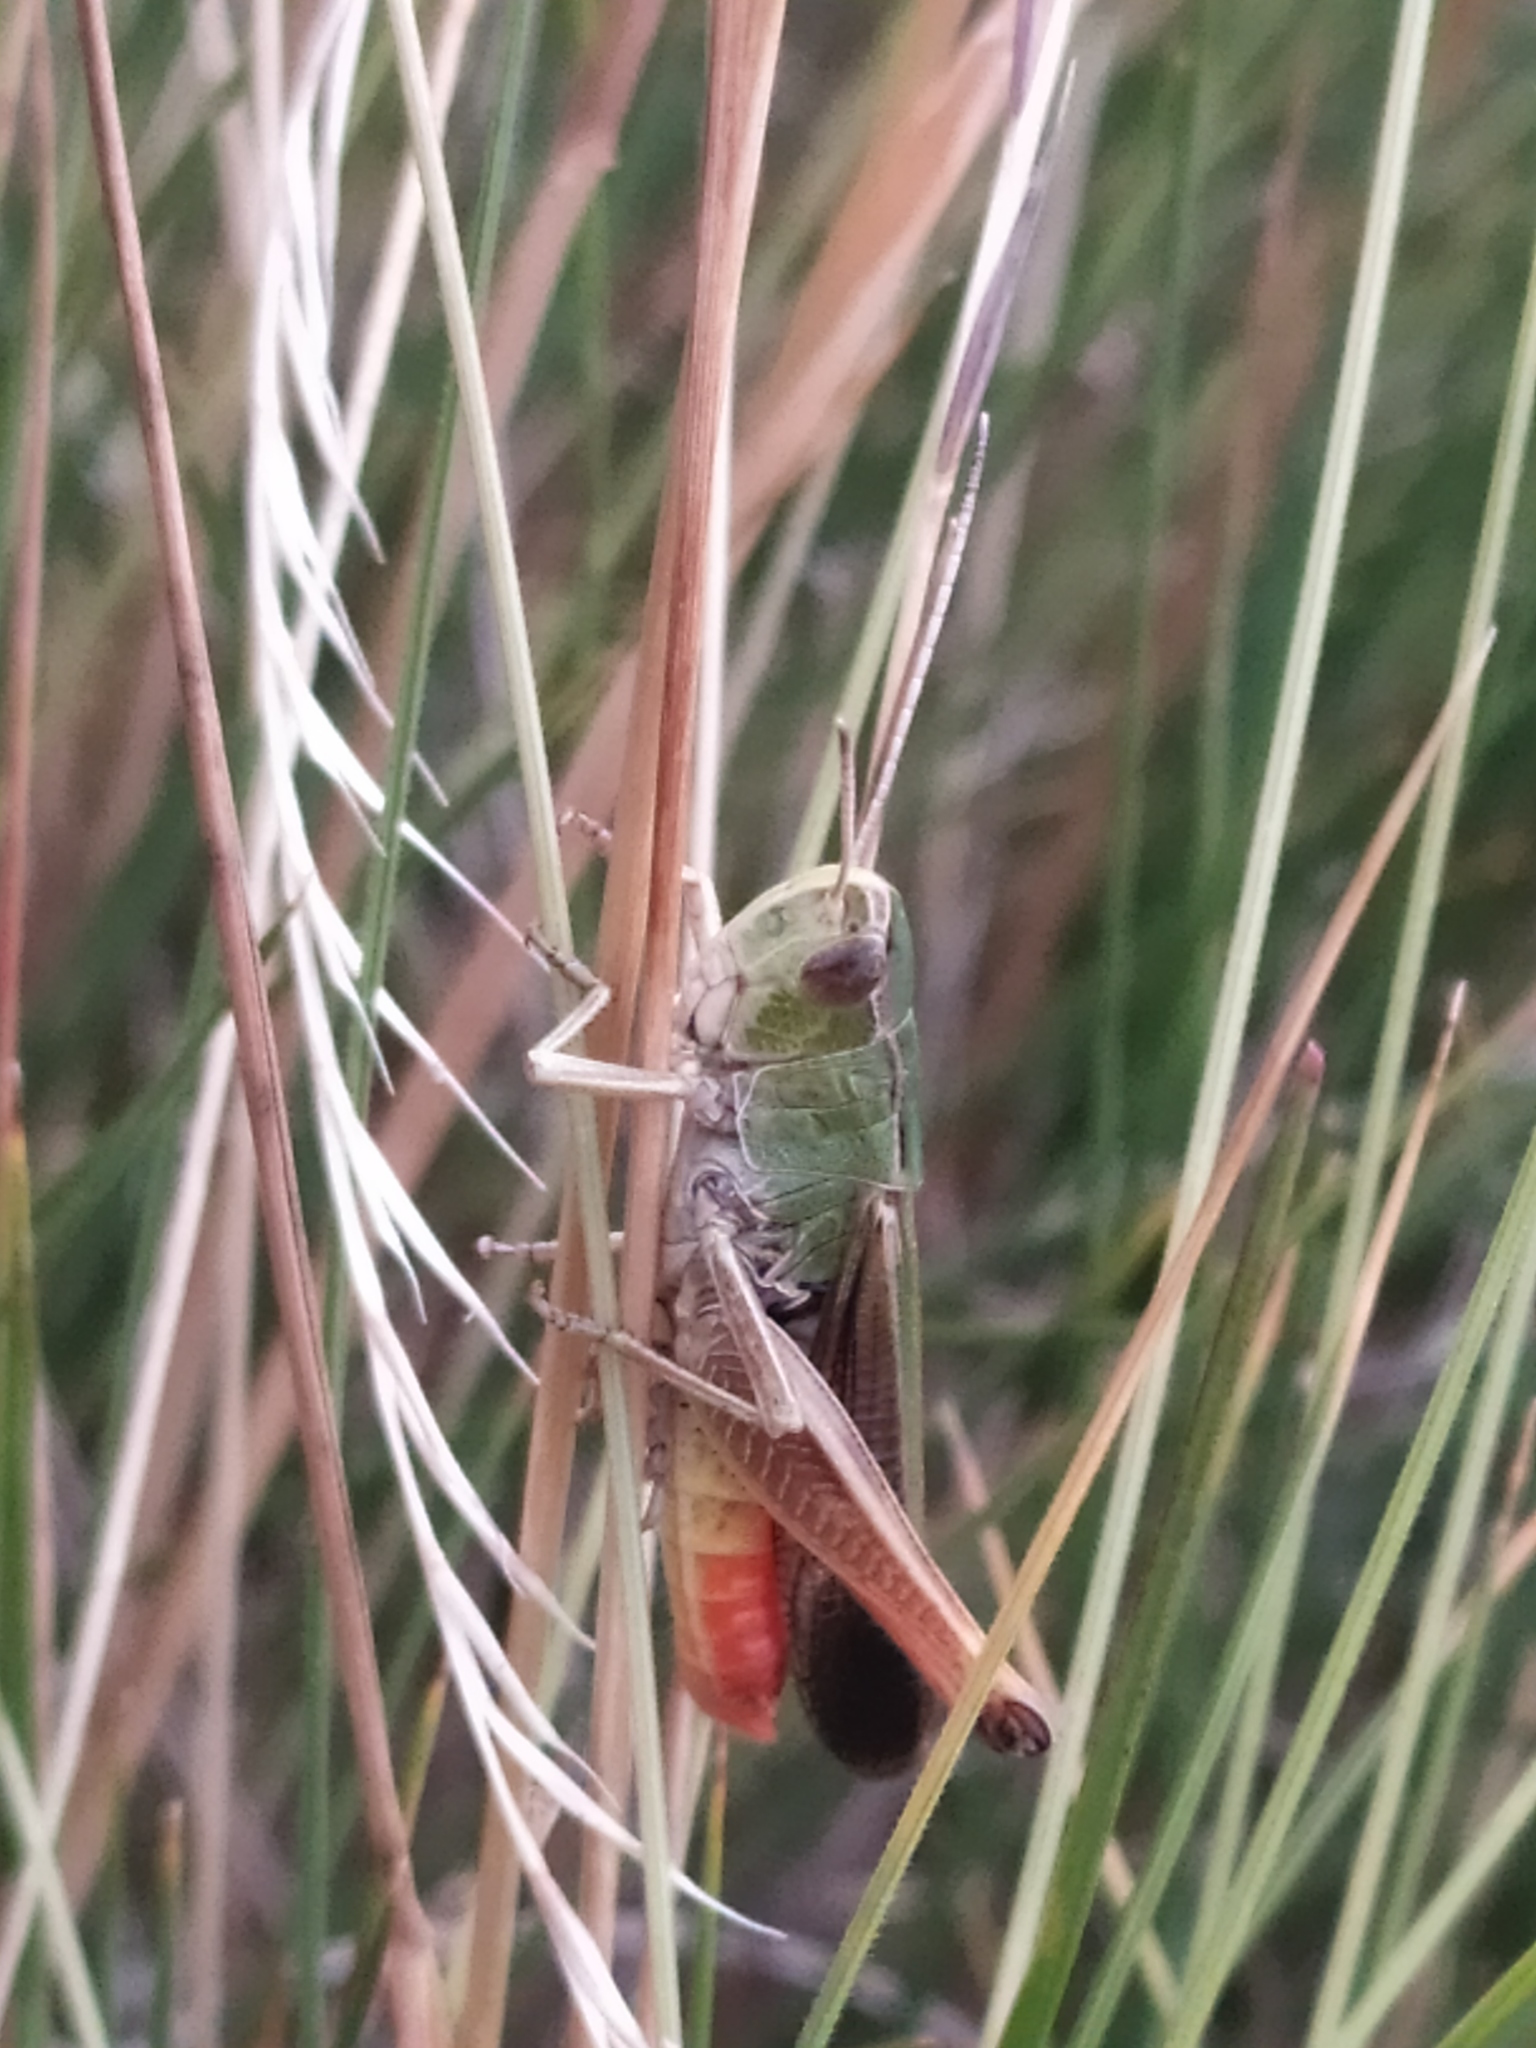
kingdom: Animalia
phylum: Arthropoda
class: Insecta
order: Orthoptera
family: Acrididae
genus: Stenobothrus
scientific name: Stenobothrus lineatus
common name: Stripe-winged grasshopper
